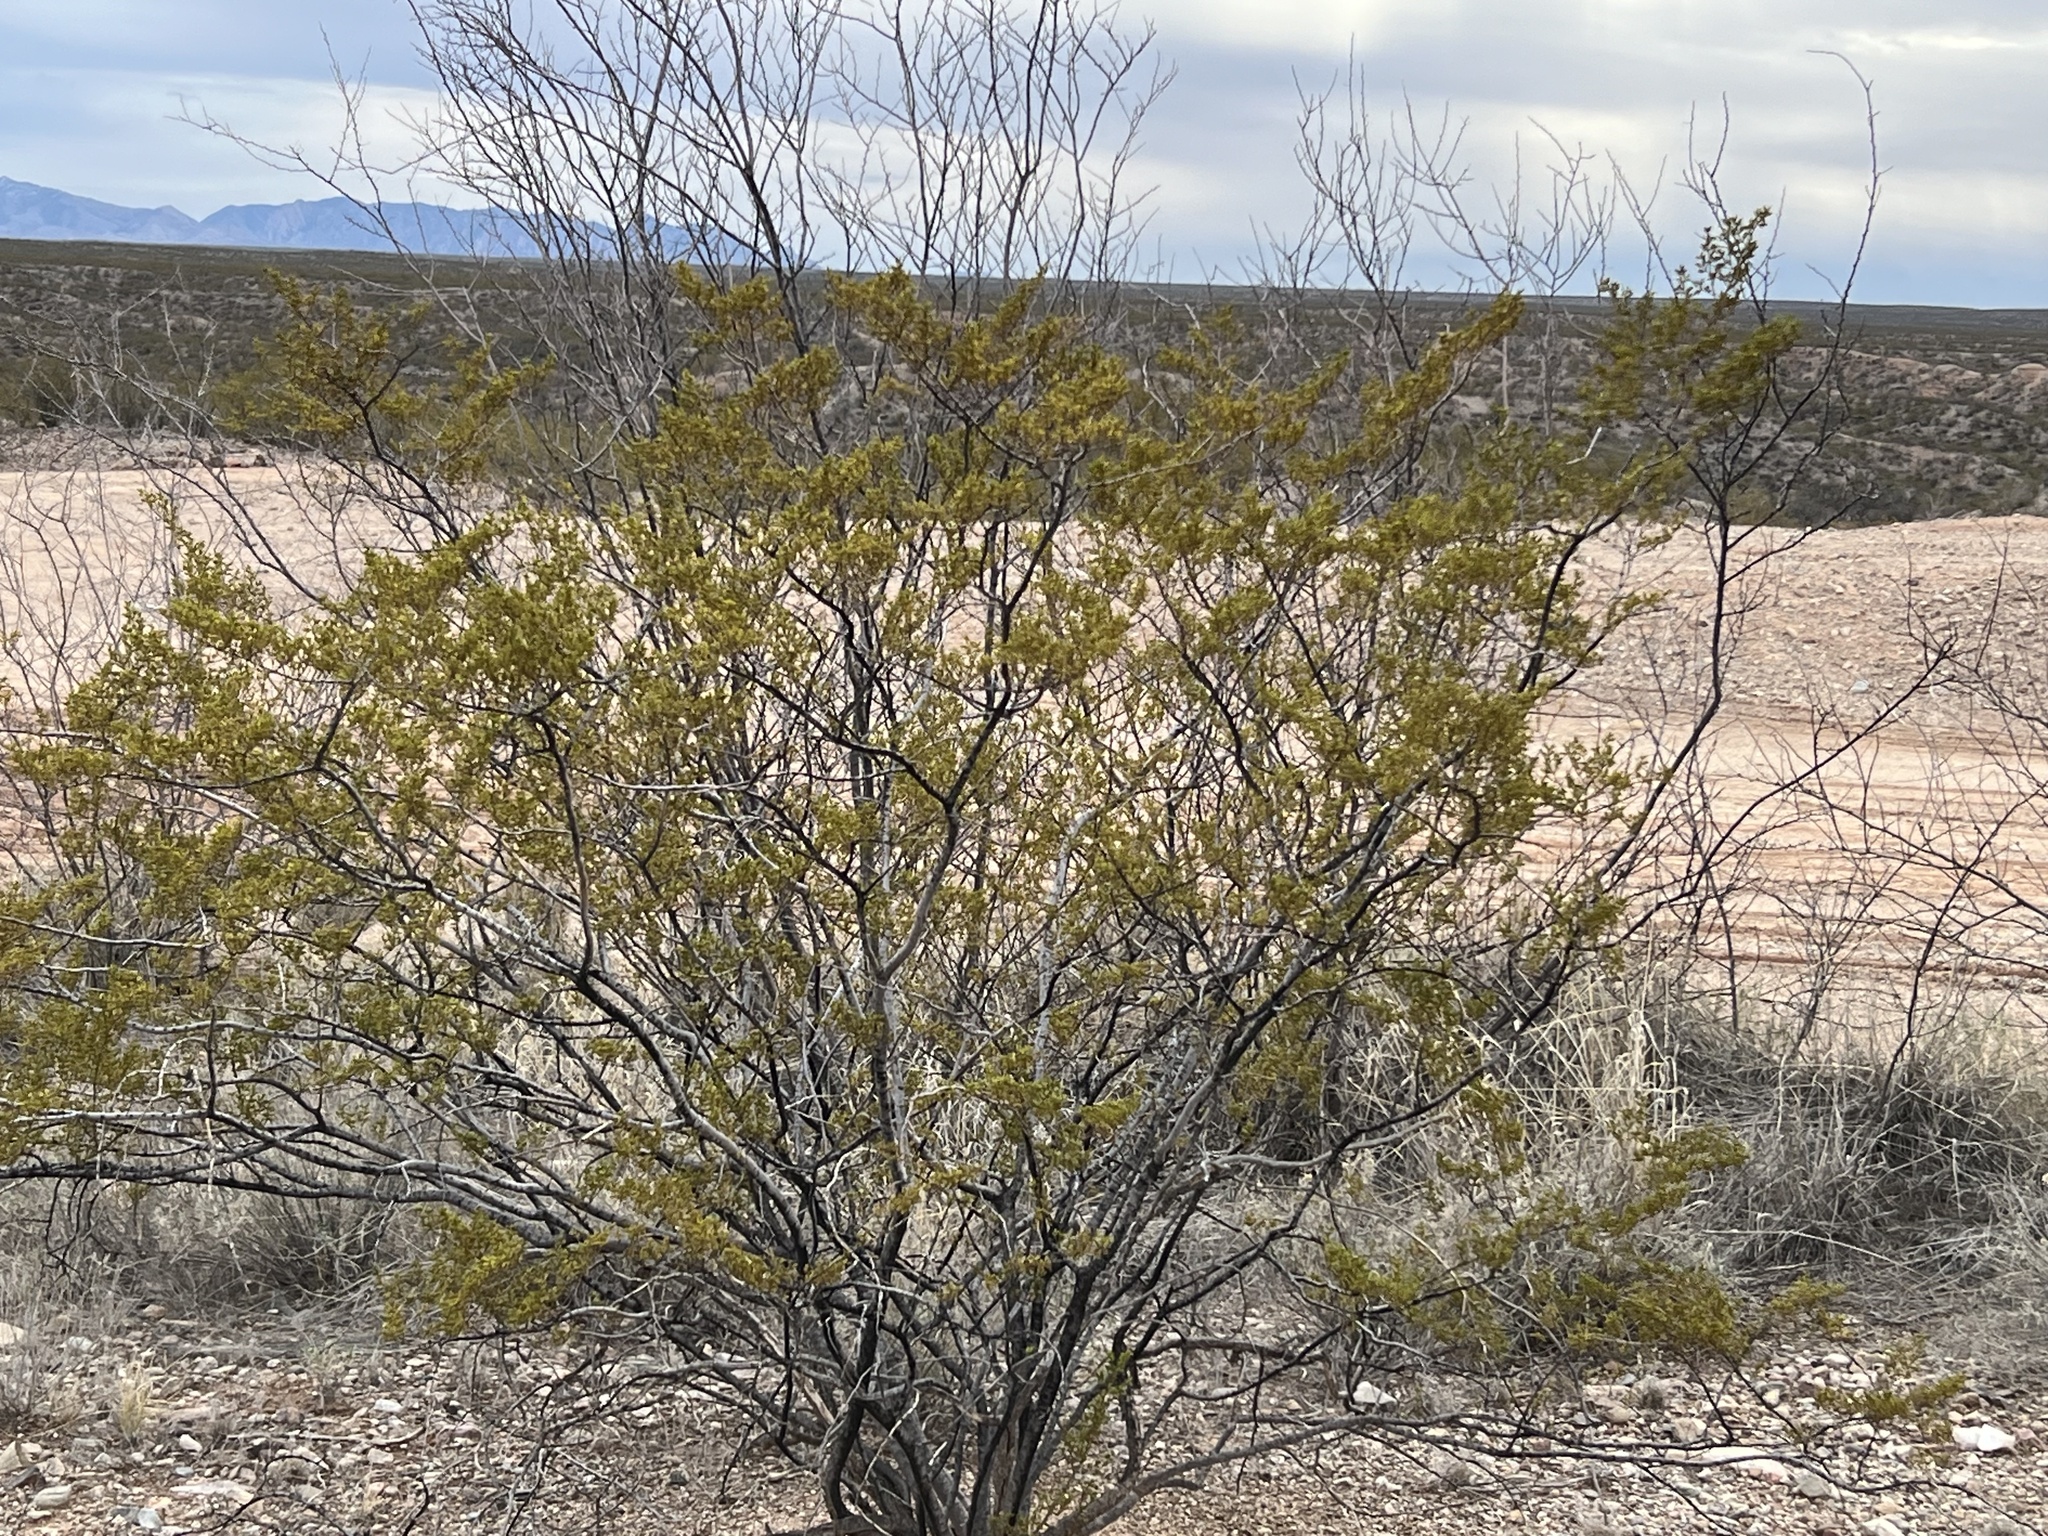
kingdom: Plantae
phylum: Tracheophyta
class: Magnoliopsida
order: Zygophyllales
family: Zygophyllaceae
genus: Larrea
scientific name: Larrea tridentata
